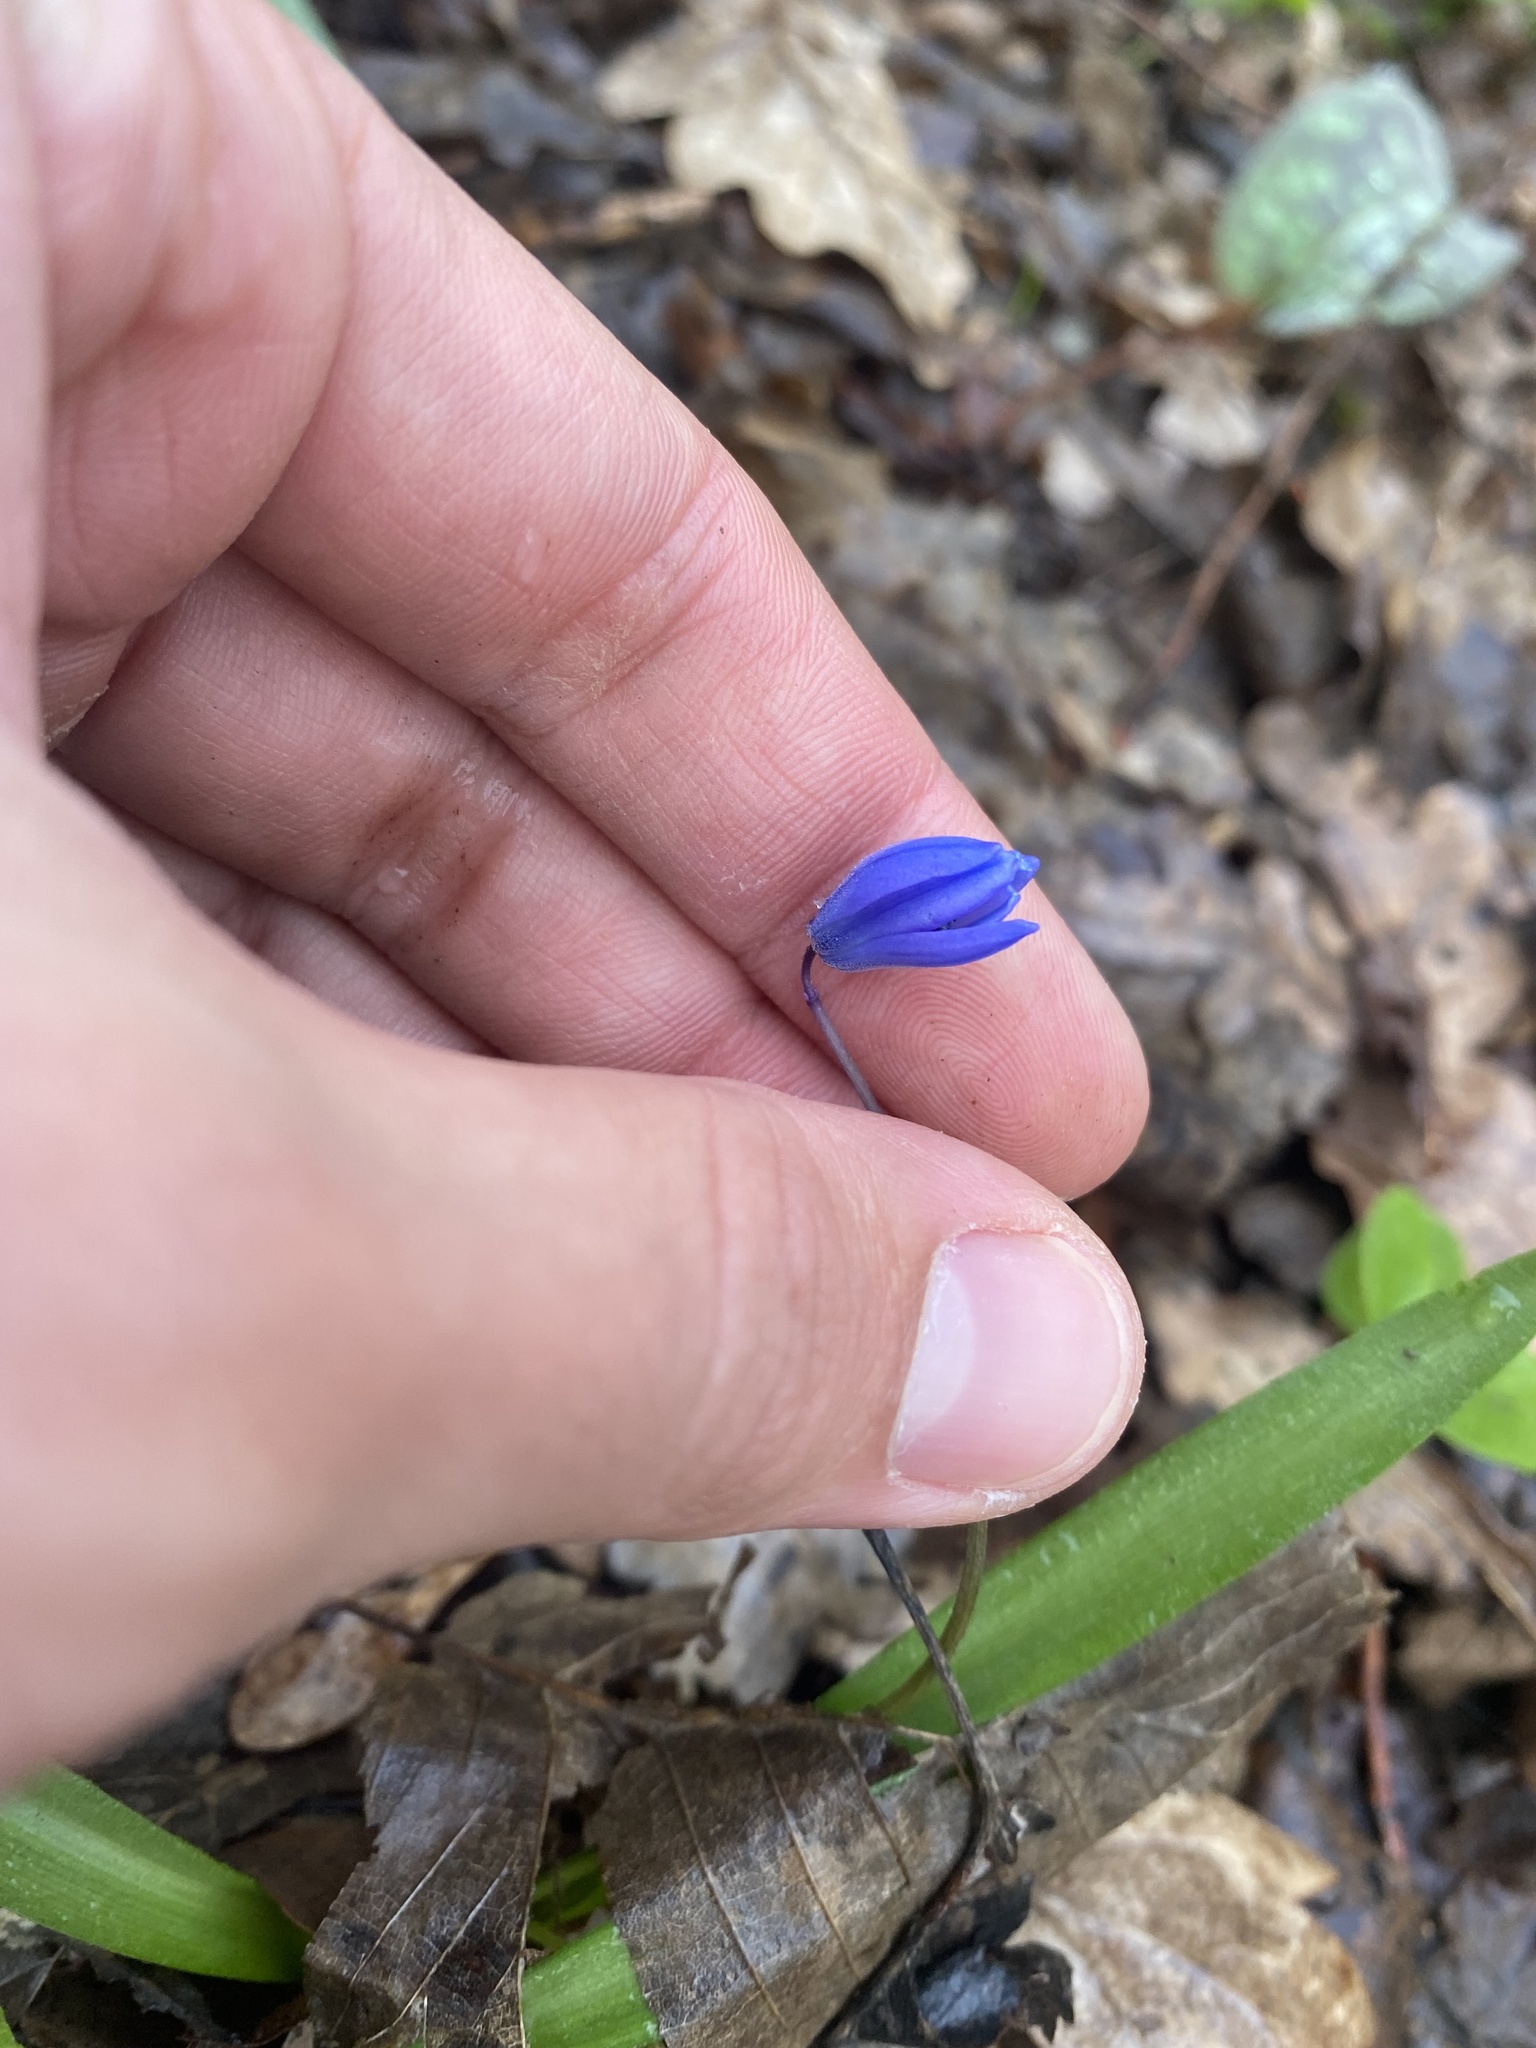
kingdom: Plantae
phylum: Tracheophyta
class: Liliopsida
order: Asparagales
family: Asparagaceae
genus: Scilla
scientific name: Scilla siberica
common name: Siberian squill
